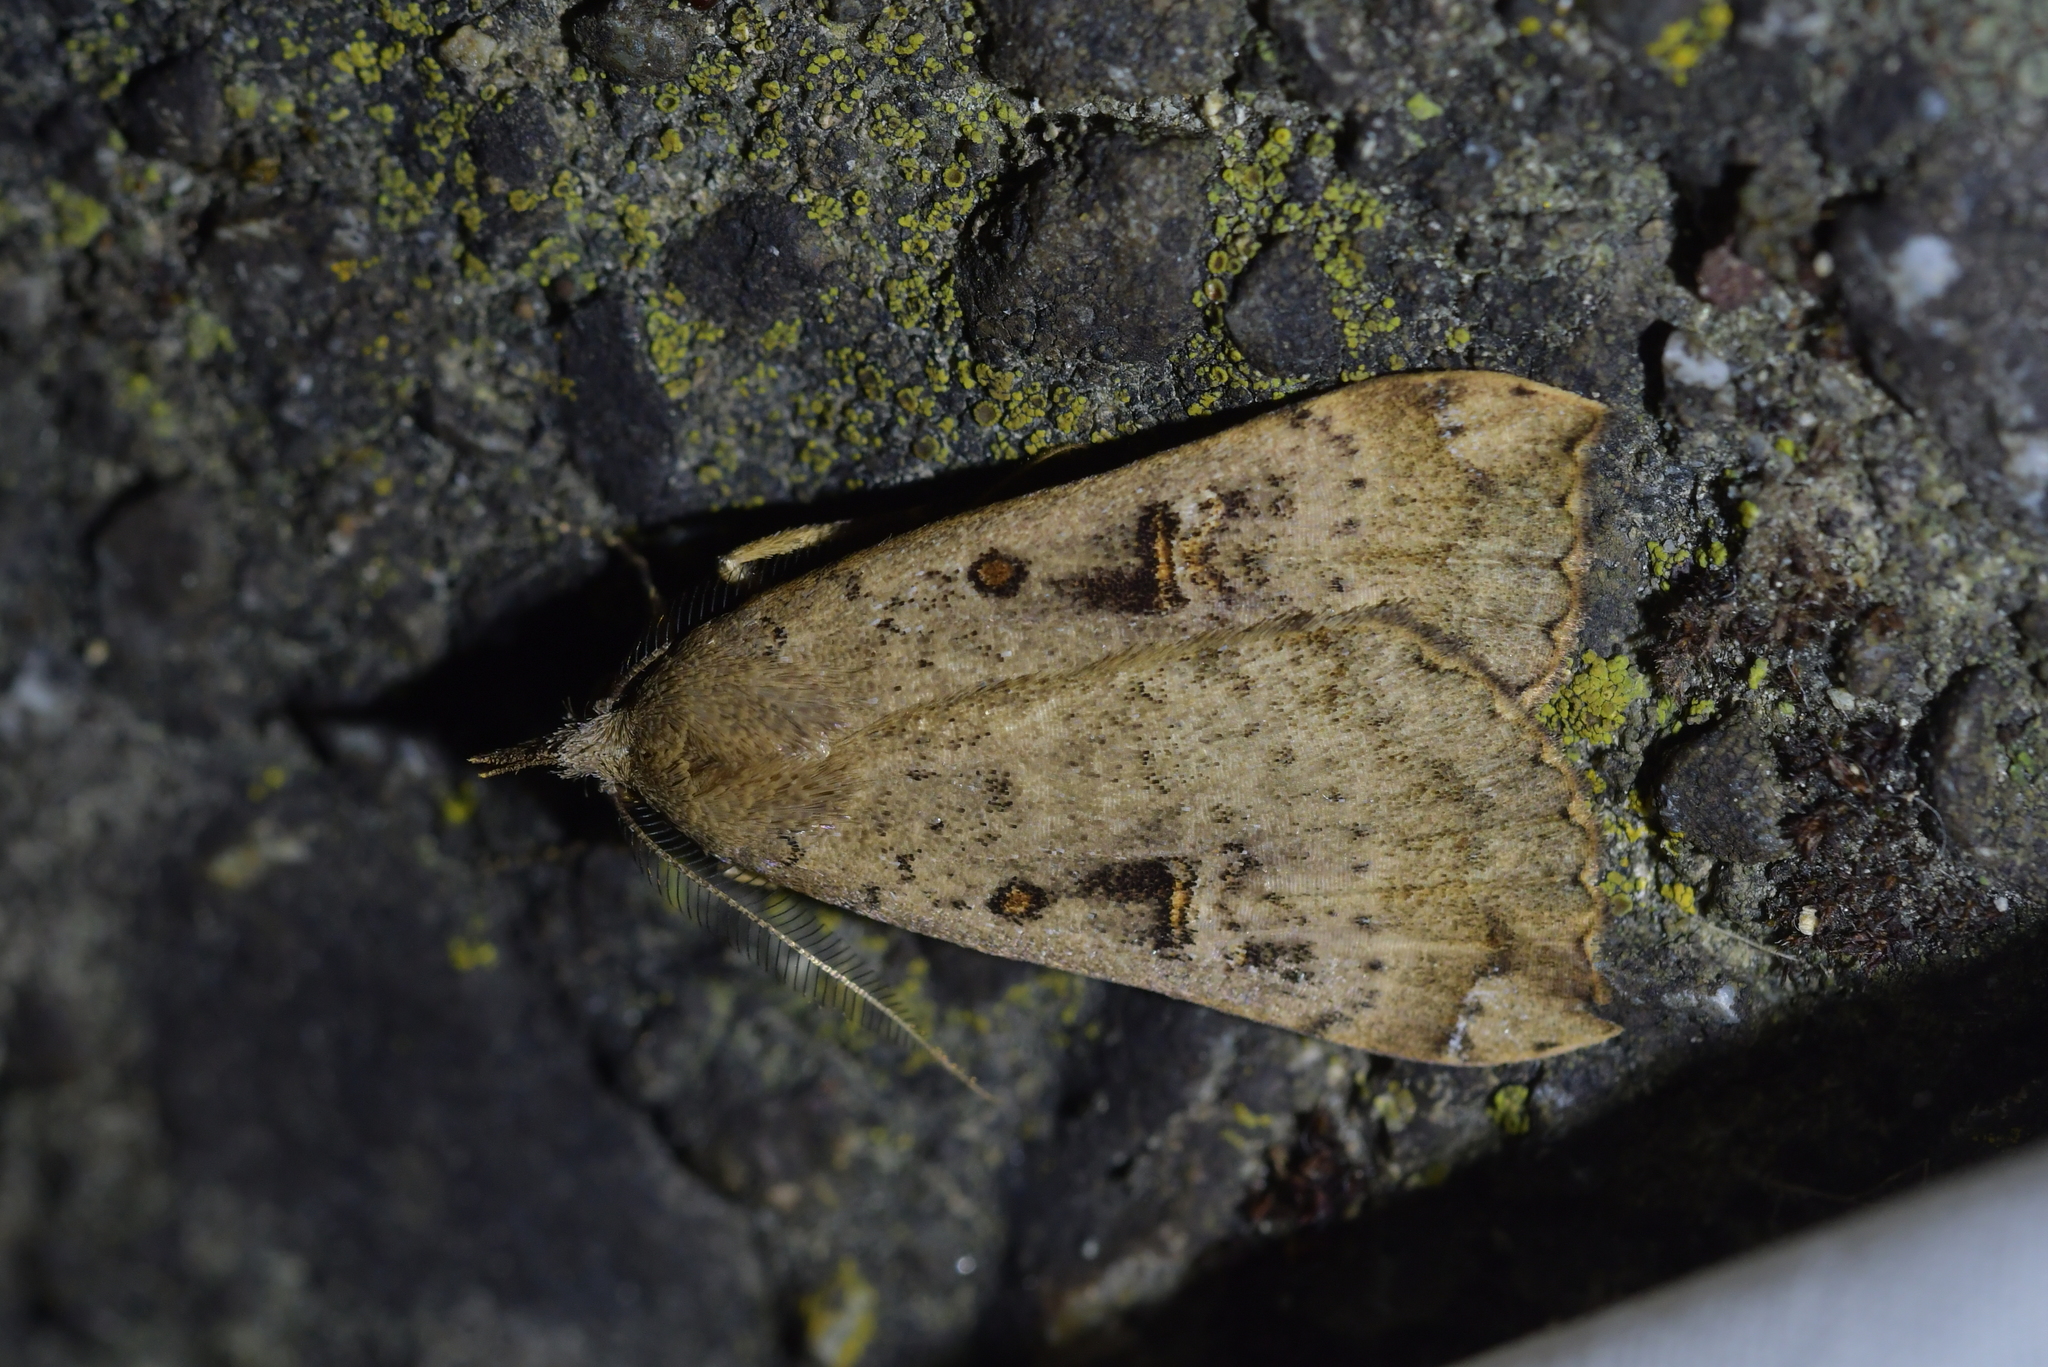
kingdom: Animalia
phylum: Arthropoda
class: Insecta
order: Lepidoptera
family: Erebidae
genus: Rhapsa
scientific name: Rhapsa scotosialis
